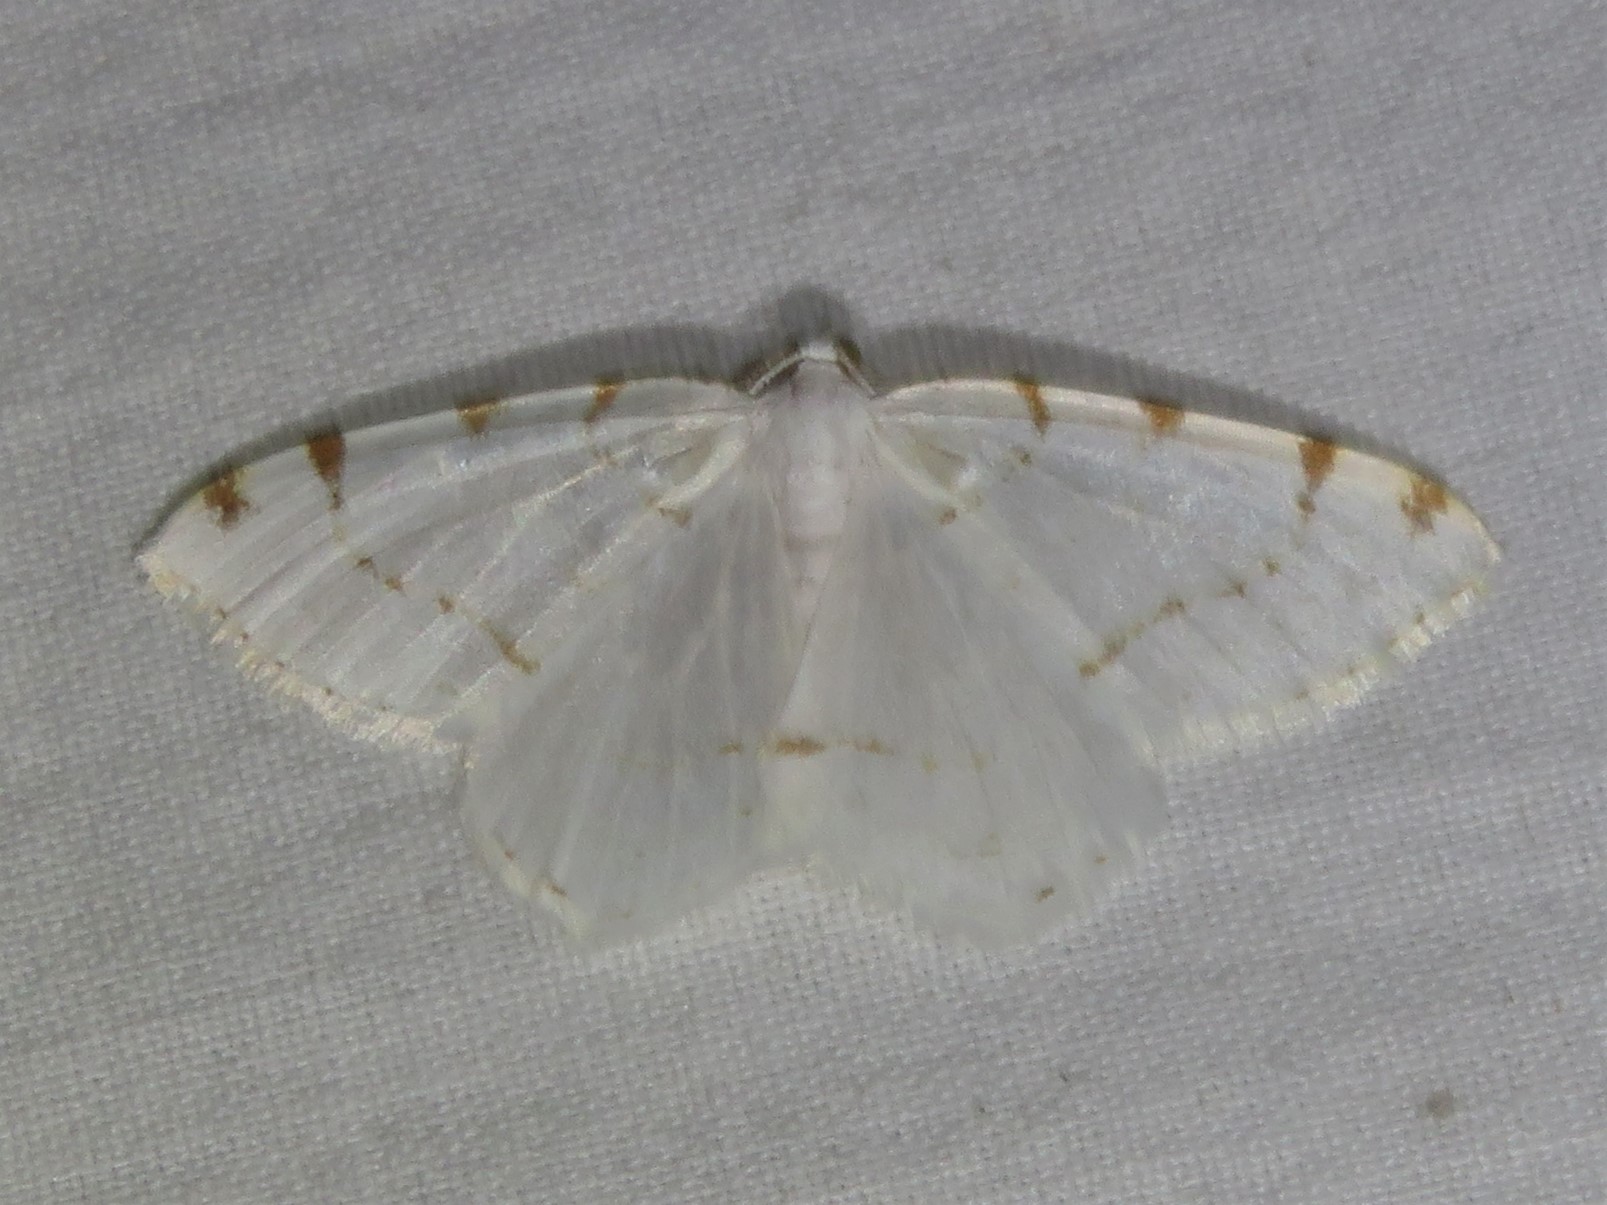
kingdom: Animalia
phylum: Arthropoda
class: Insecta
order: Lepidoptera
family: Geometridae
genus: Macaria
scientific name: Macaria pustularia
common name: Lesser maple spanworm moth
